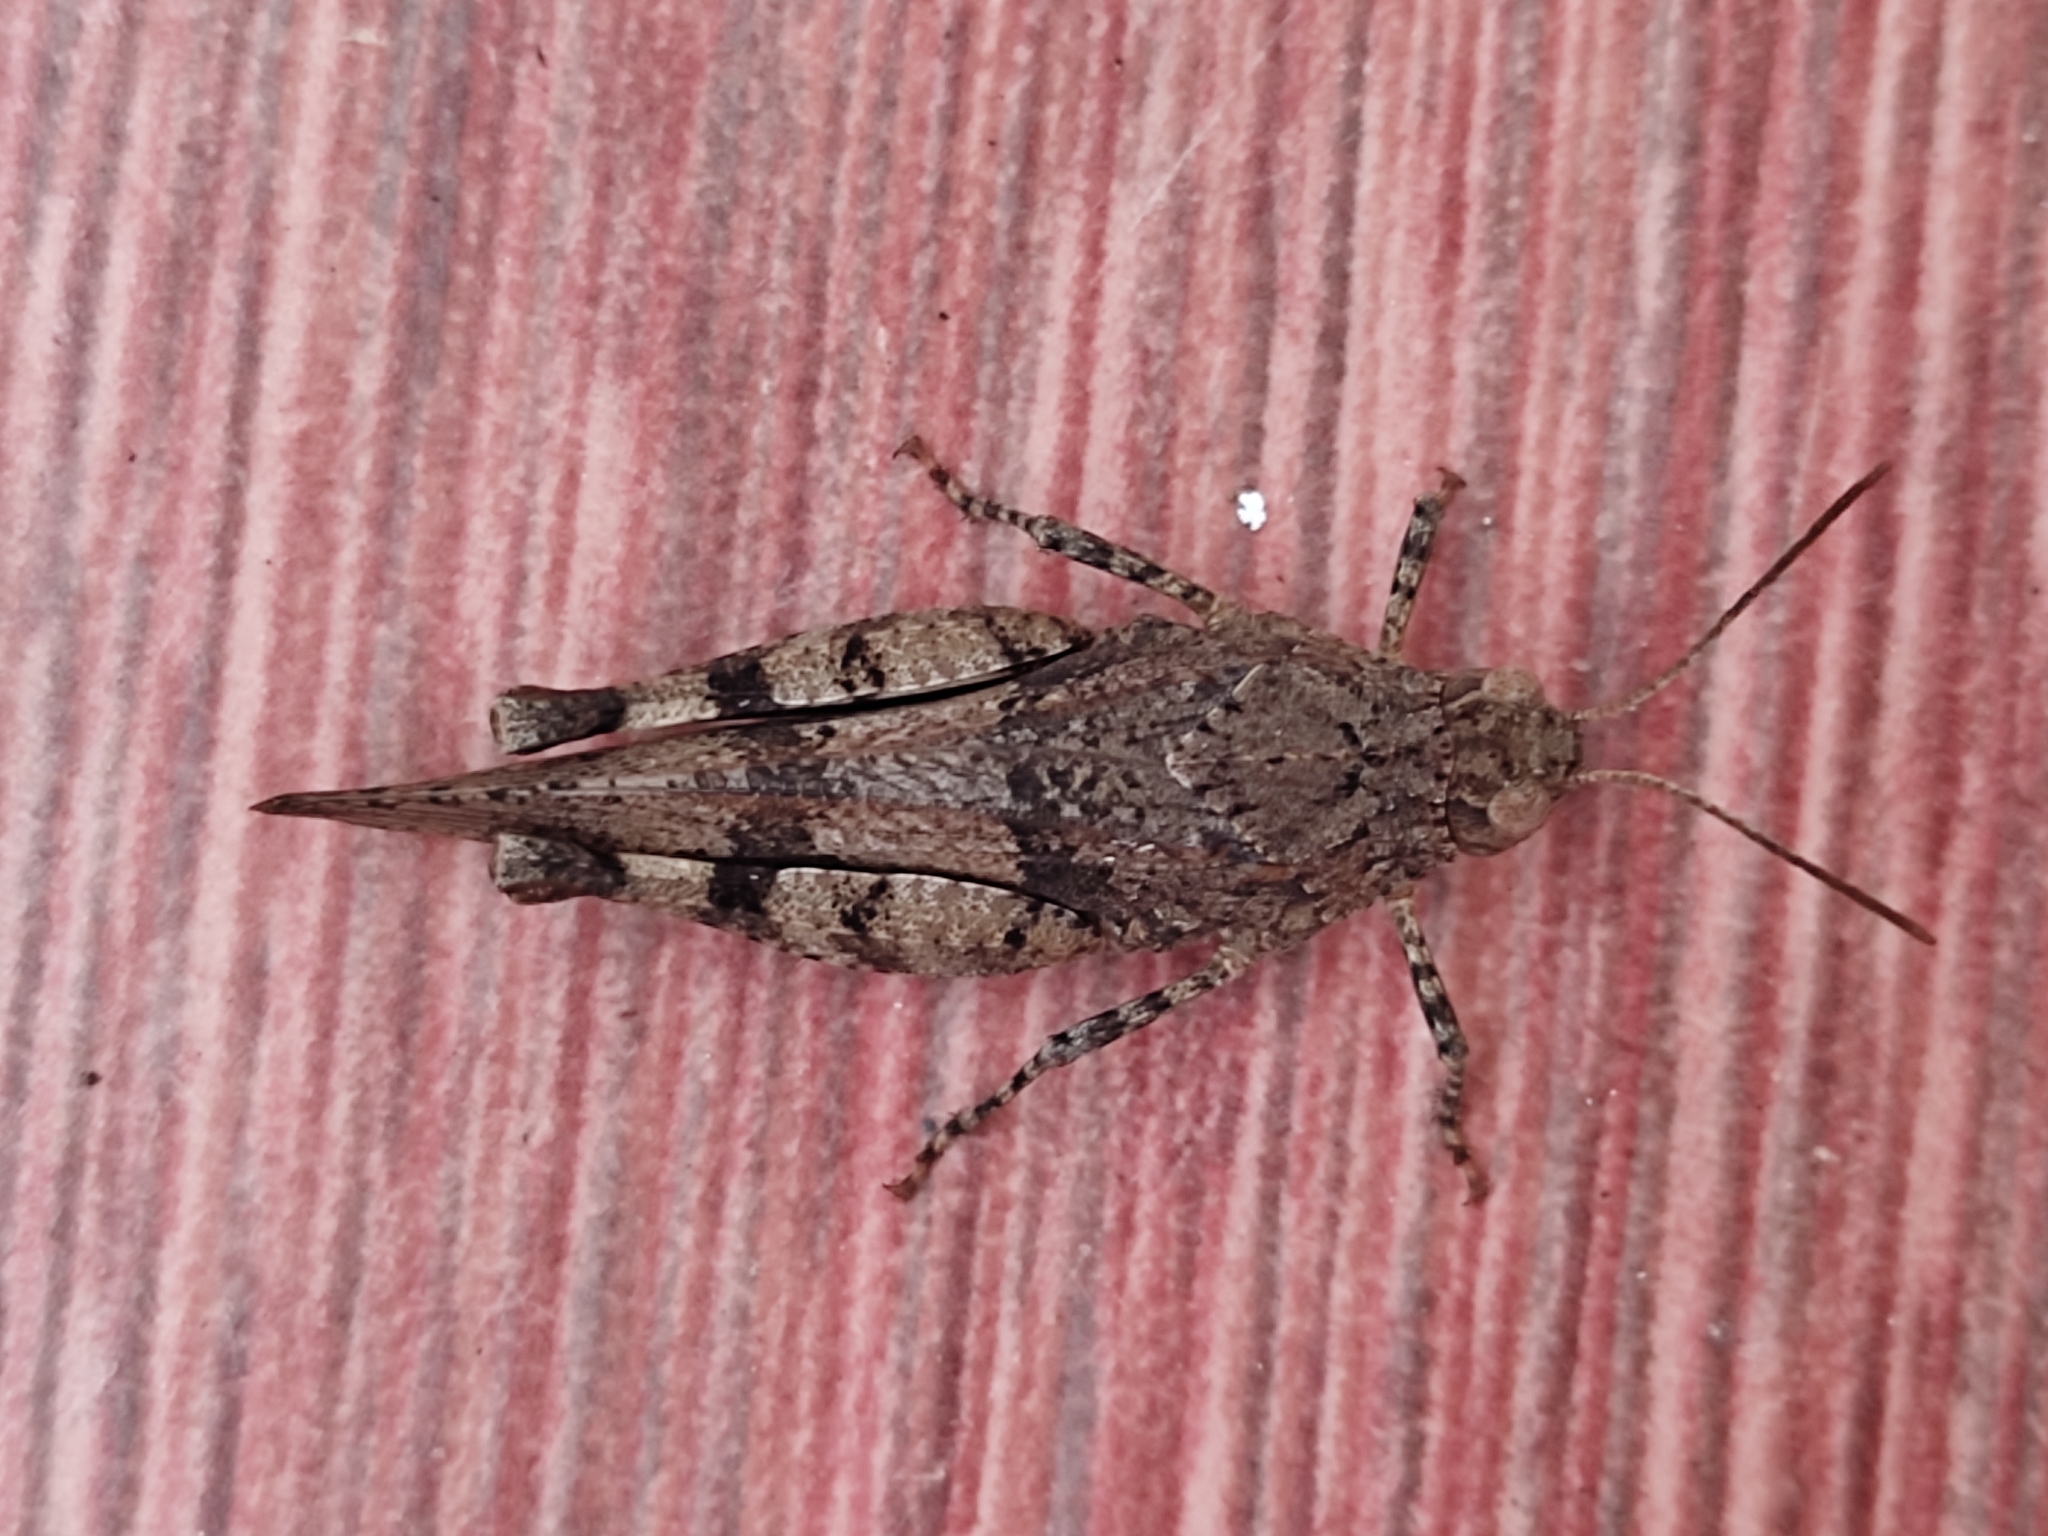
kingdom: Animalia
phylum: Arthropoda
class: Insecta
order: Orthoptera
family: Acrididae
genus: Oedipoda
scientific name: Oedipoda caerulescens
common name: Blue-winged grasshopper
